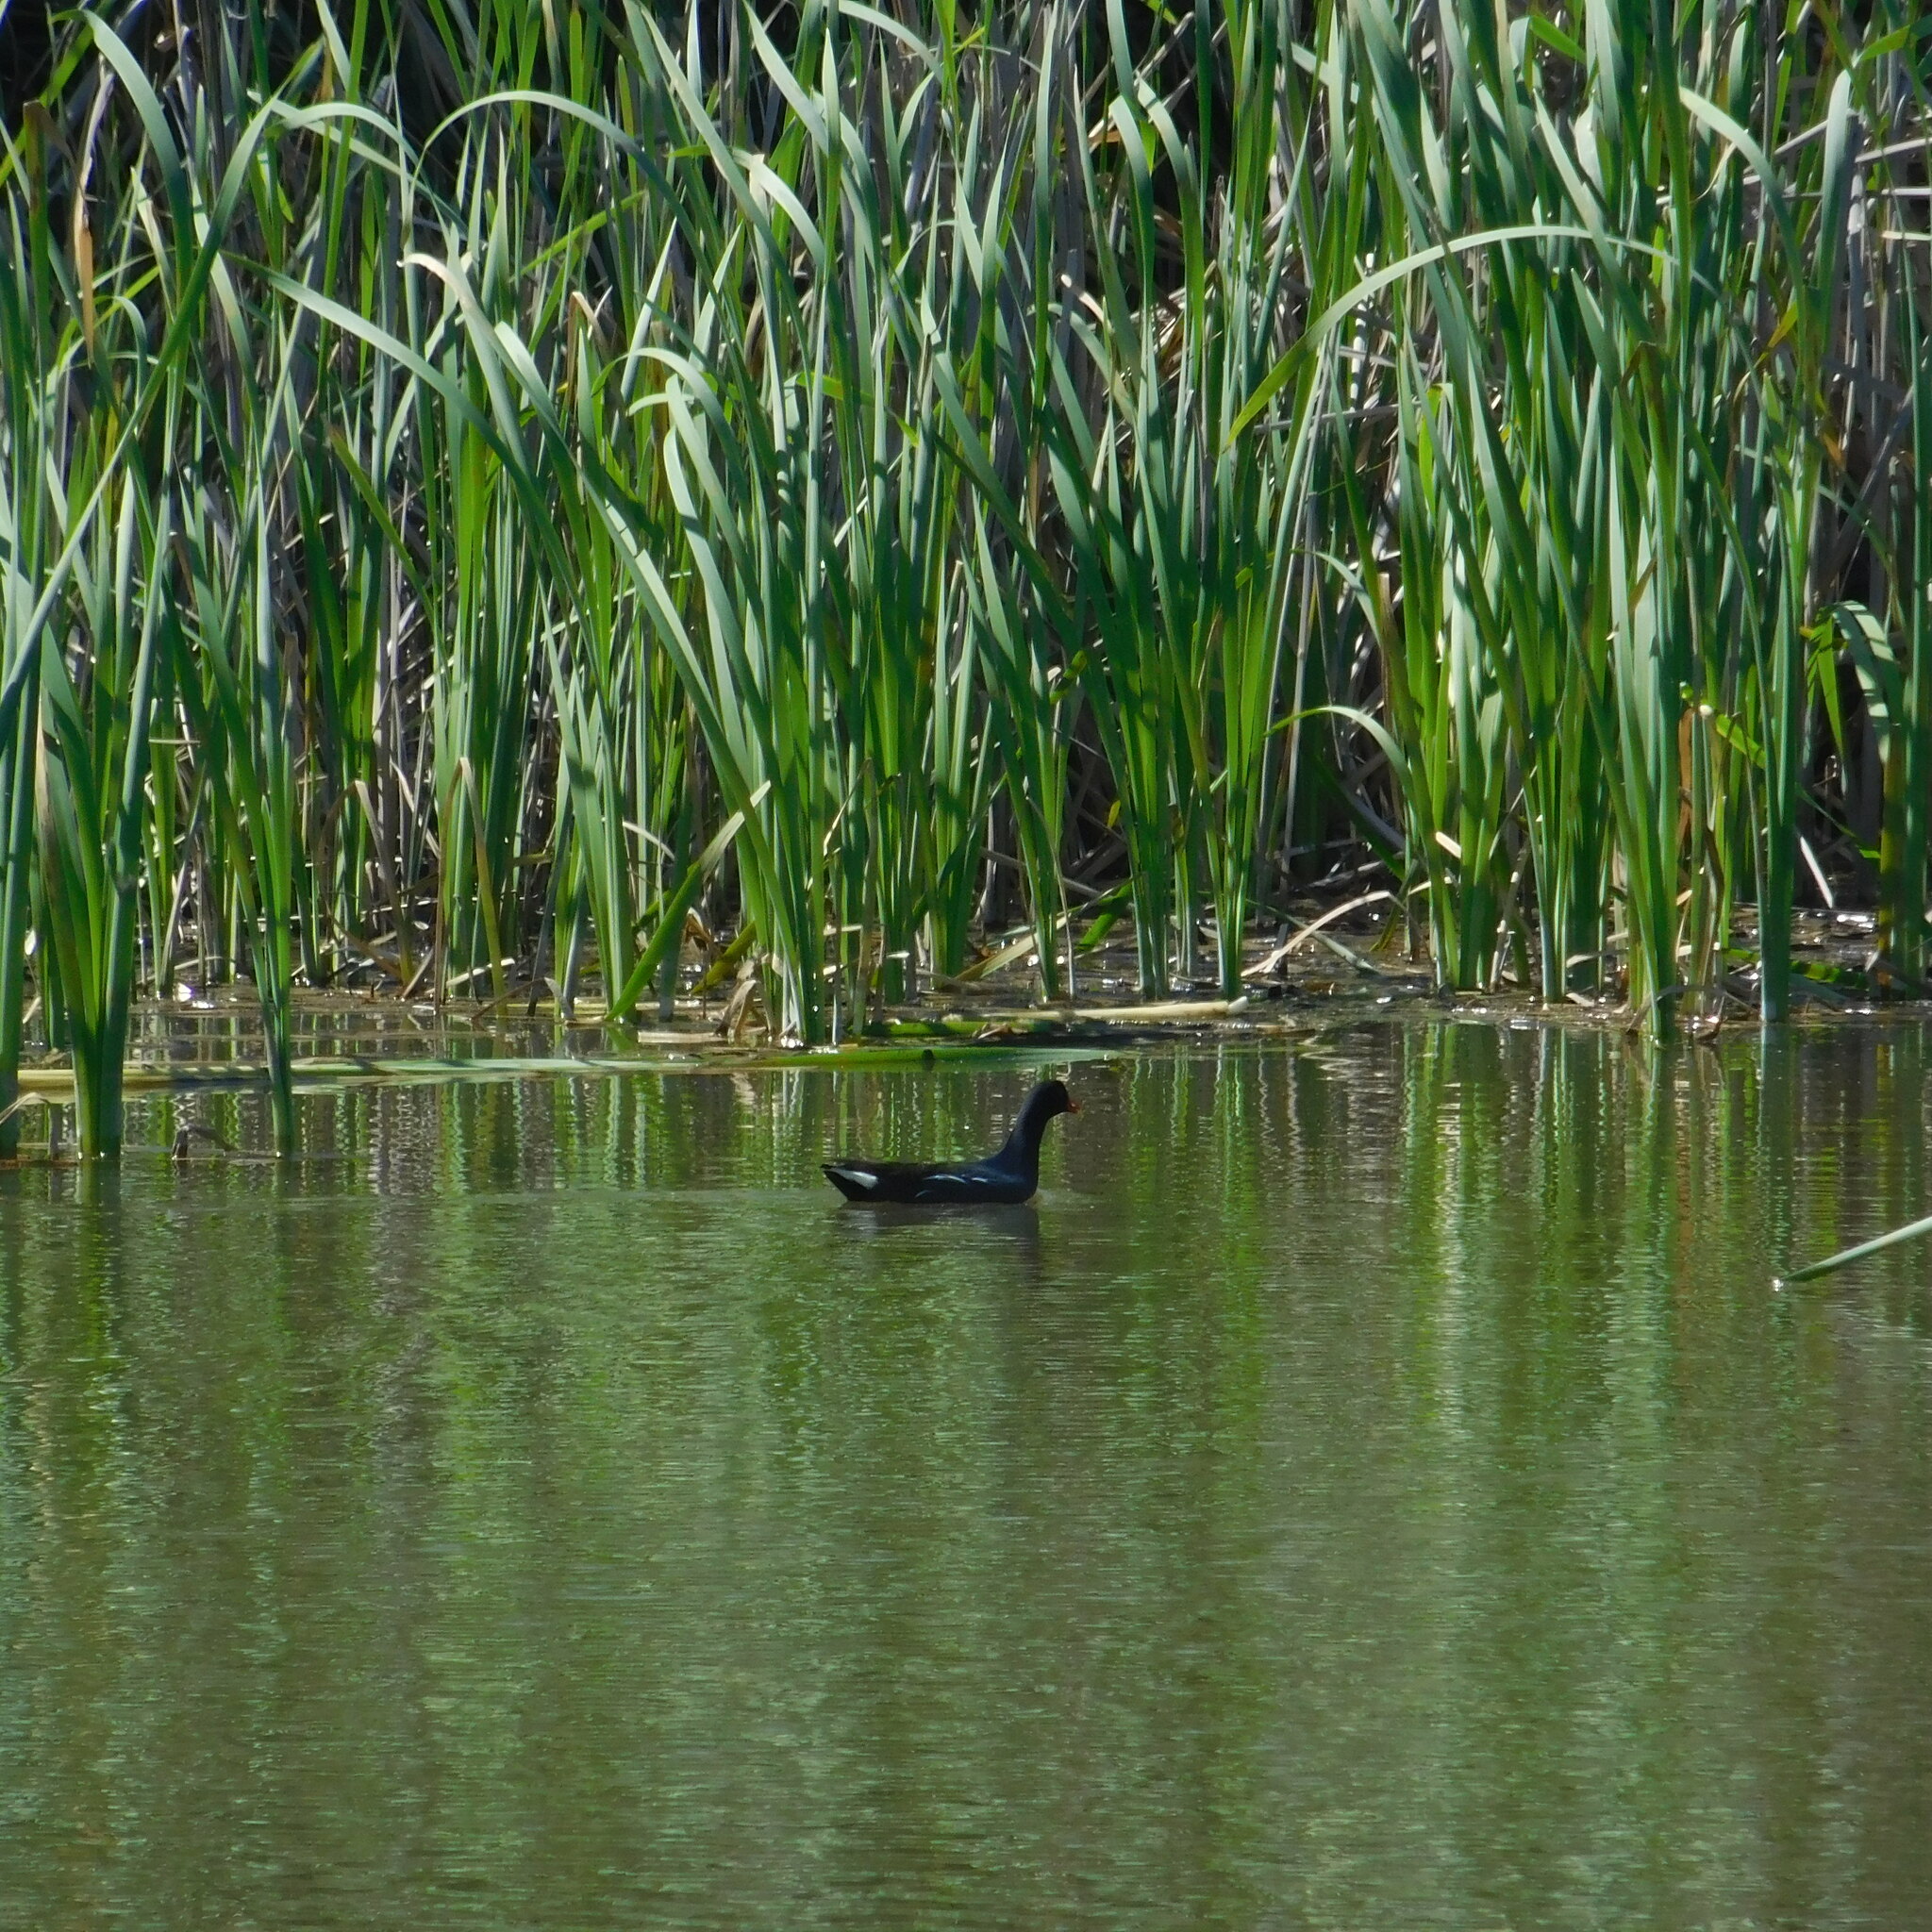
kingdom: Animalia
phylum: Chordata
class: Aves
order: Gruiformes
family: Rallidae
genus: Gallinula
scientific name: Gallinula chloropus
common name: Common moorhen
